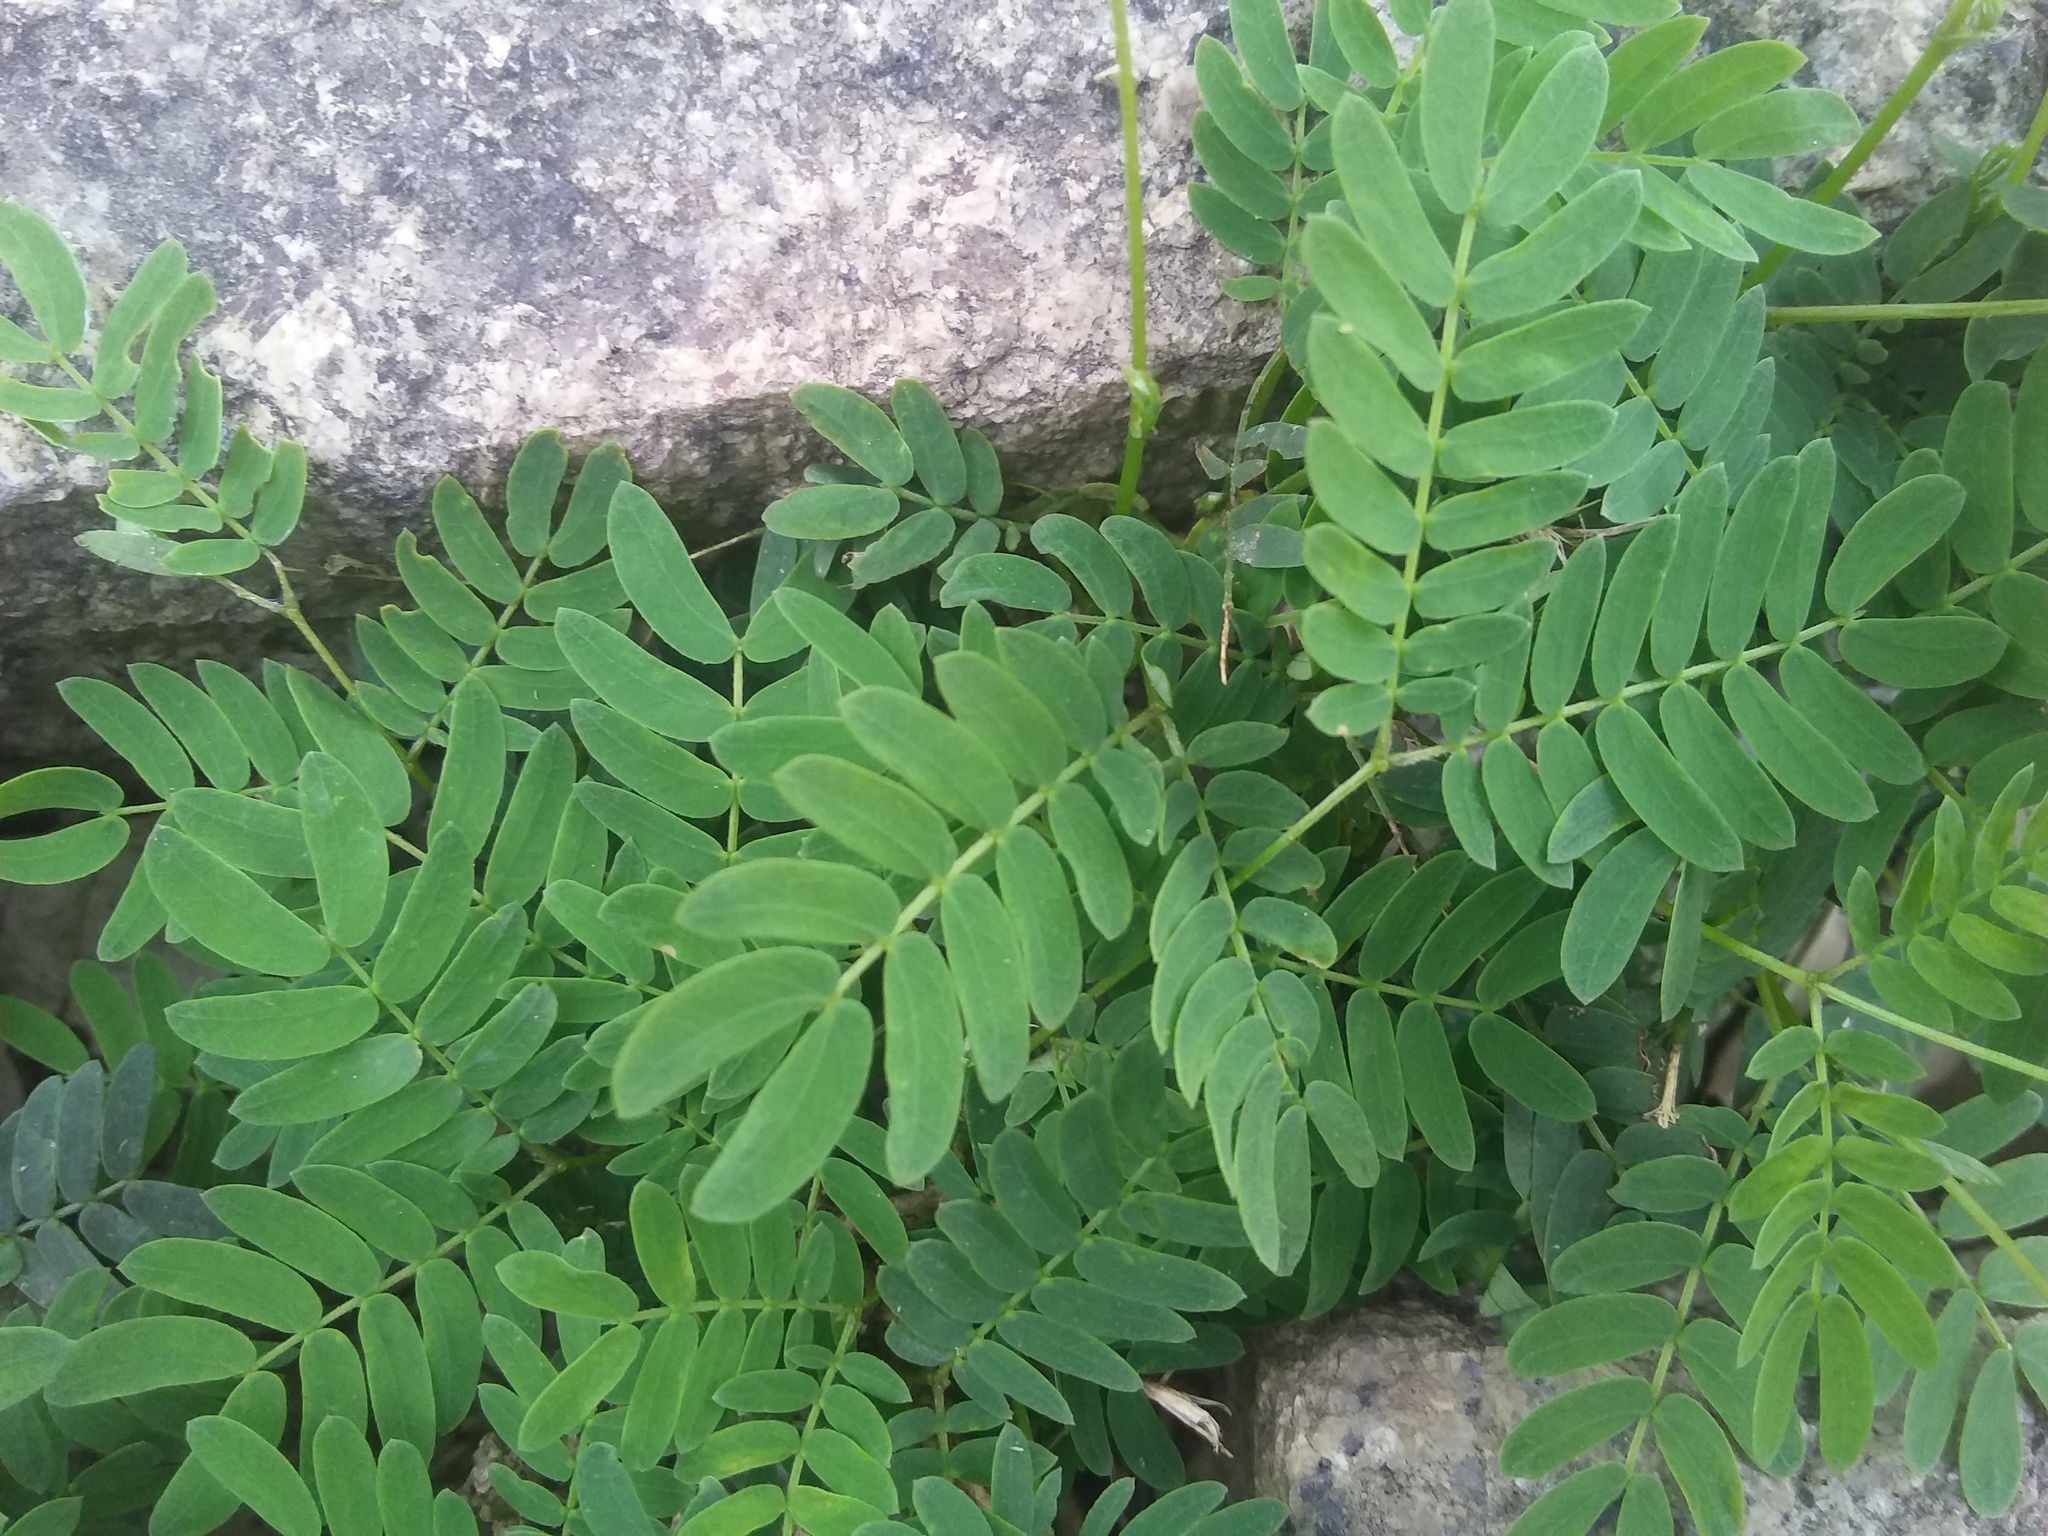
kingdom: Plantae
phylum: Tracheophyta
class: Magnoliopsida
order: Fabales
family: Fabaceae
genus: Leucaena
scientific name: Leucaena leucocephala
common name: White leadtree
